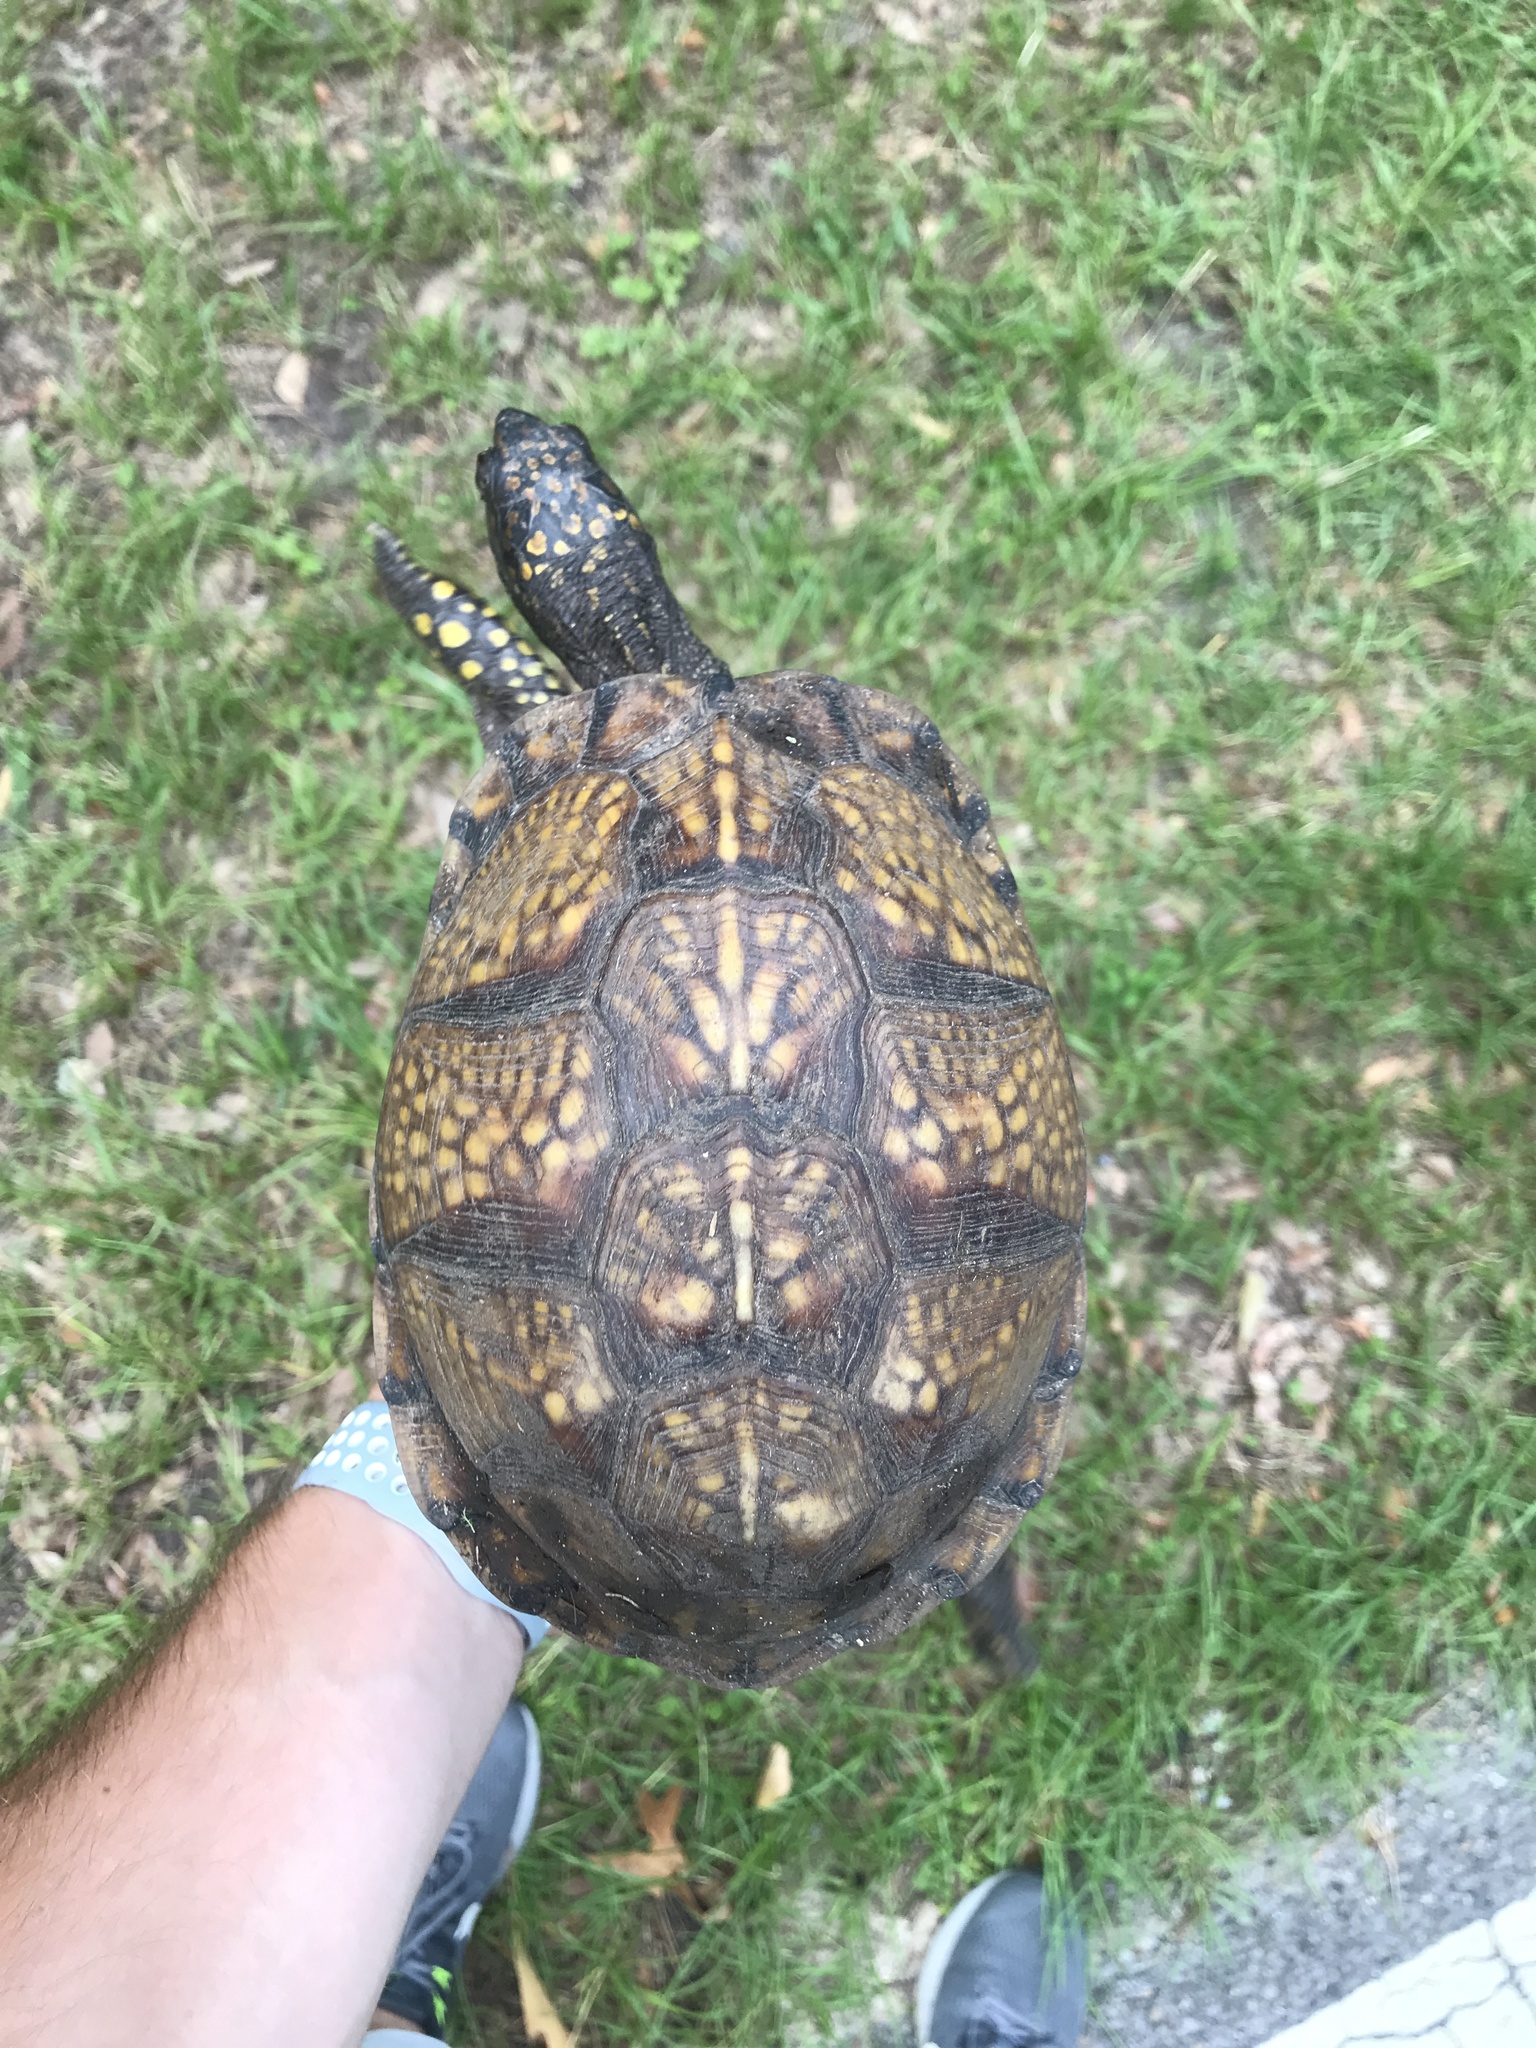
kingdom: Animalia
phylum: Chordata
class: Testudines
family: Emydidae
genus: Terrapene
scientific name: Terrapene carolina
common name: Common box turtle
